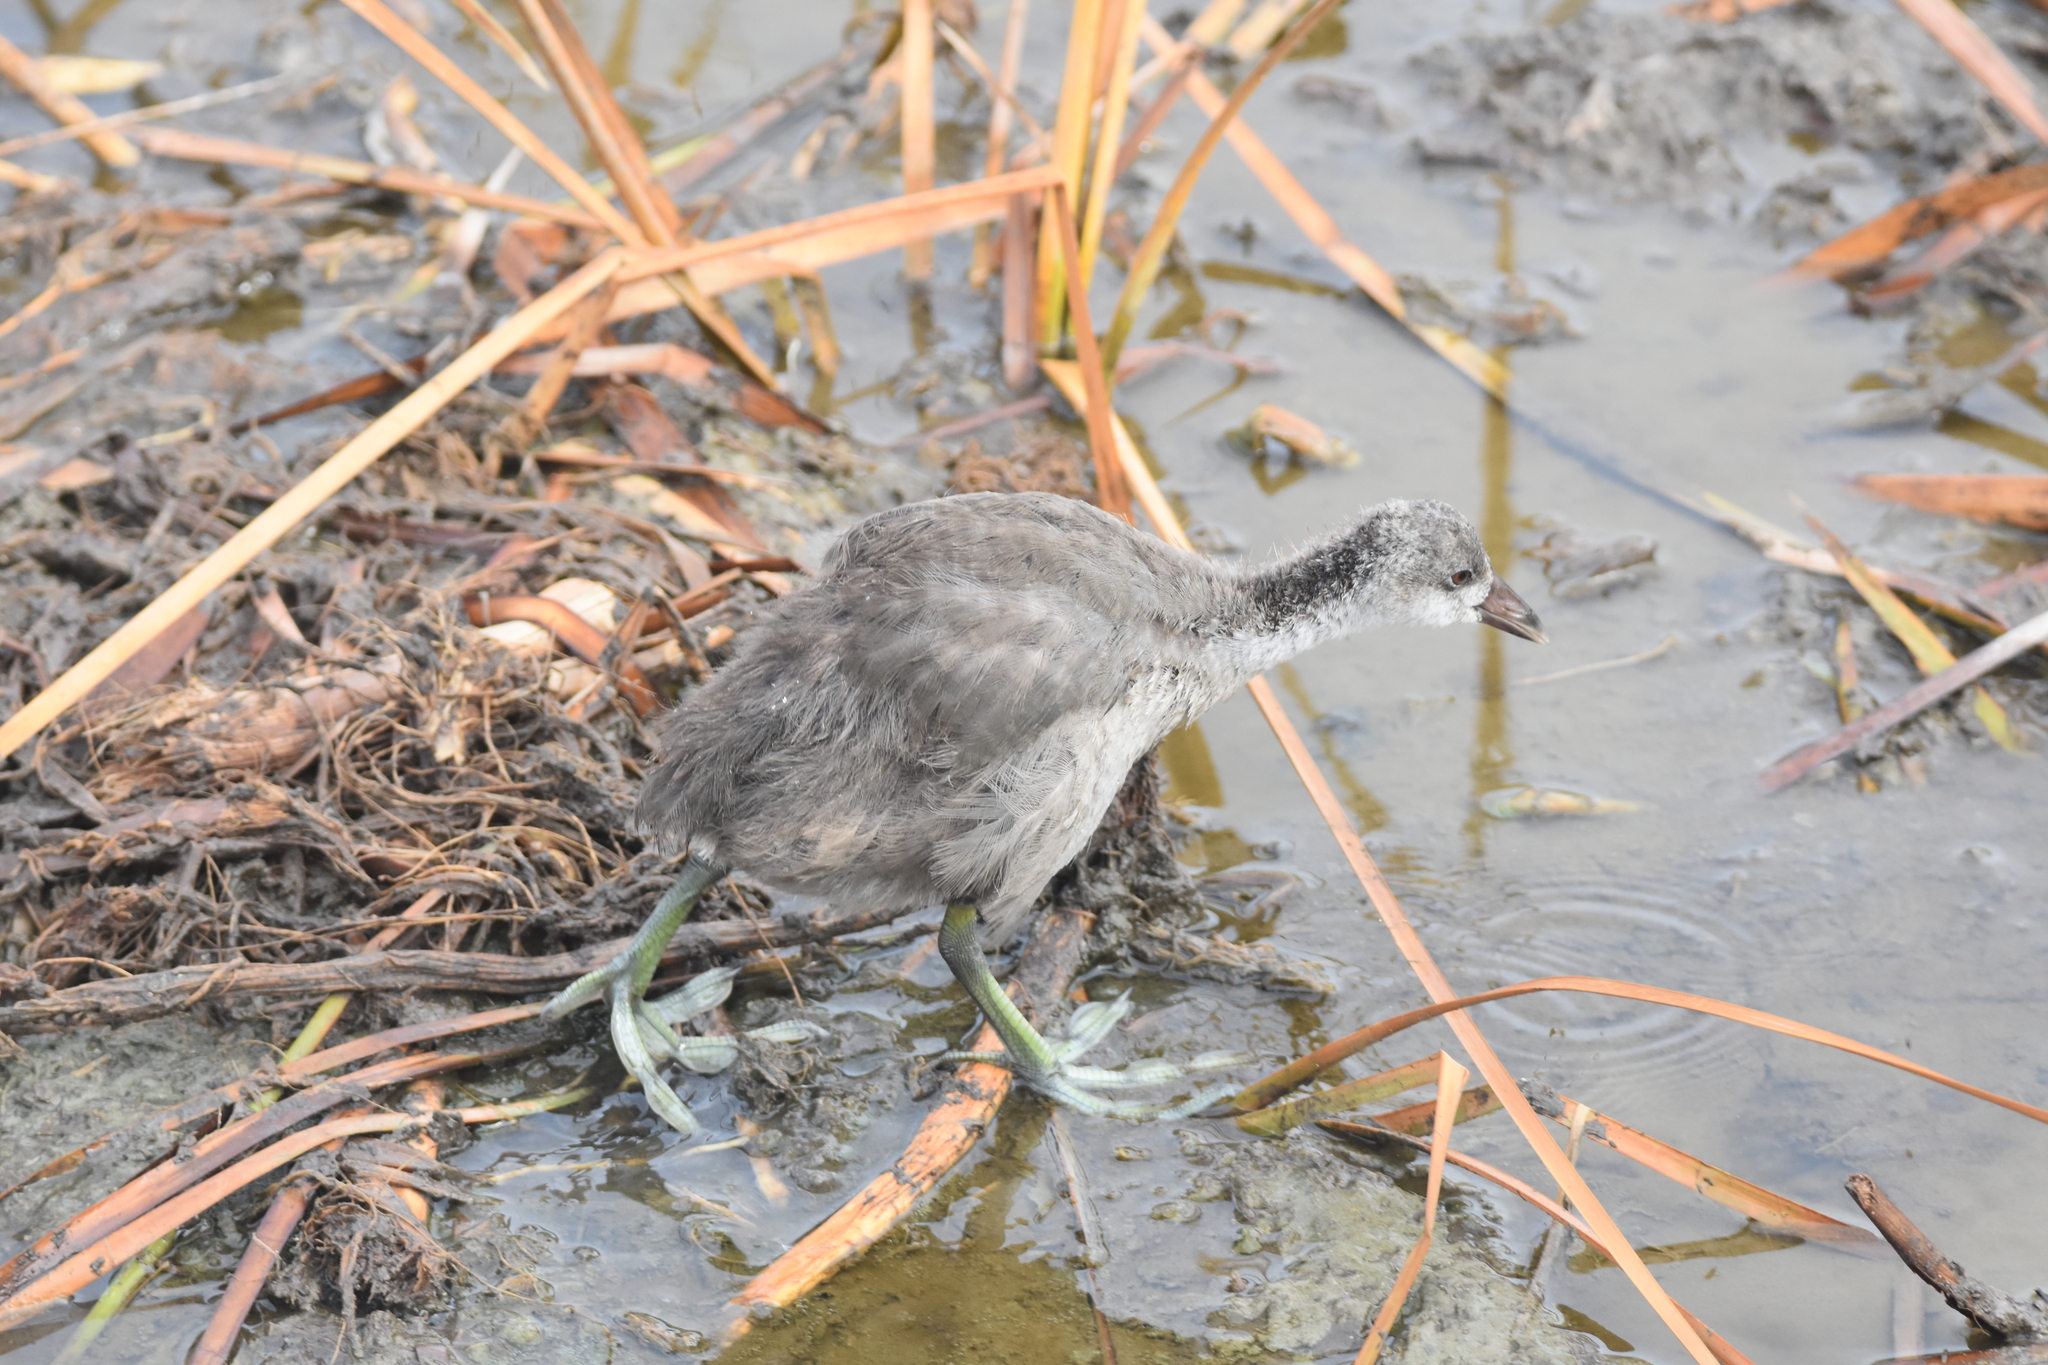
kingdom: Animalia
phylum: Chordata
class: Aves
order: Gruiformes
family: Rallidae
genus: Fulica
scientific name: Fulica americana
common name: American coot
